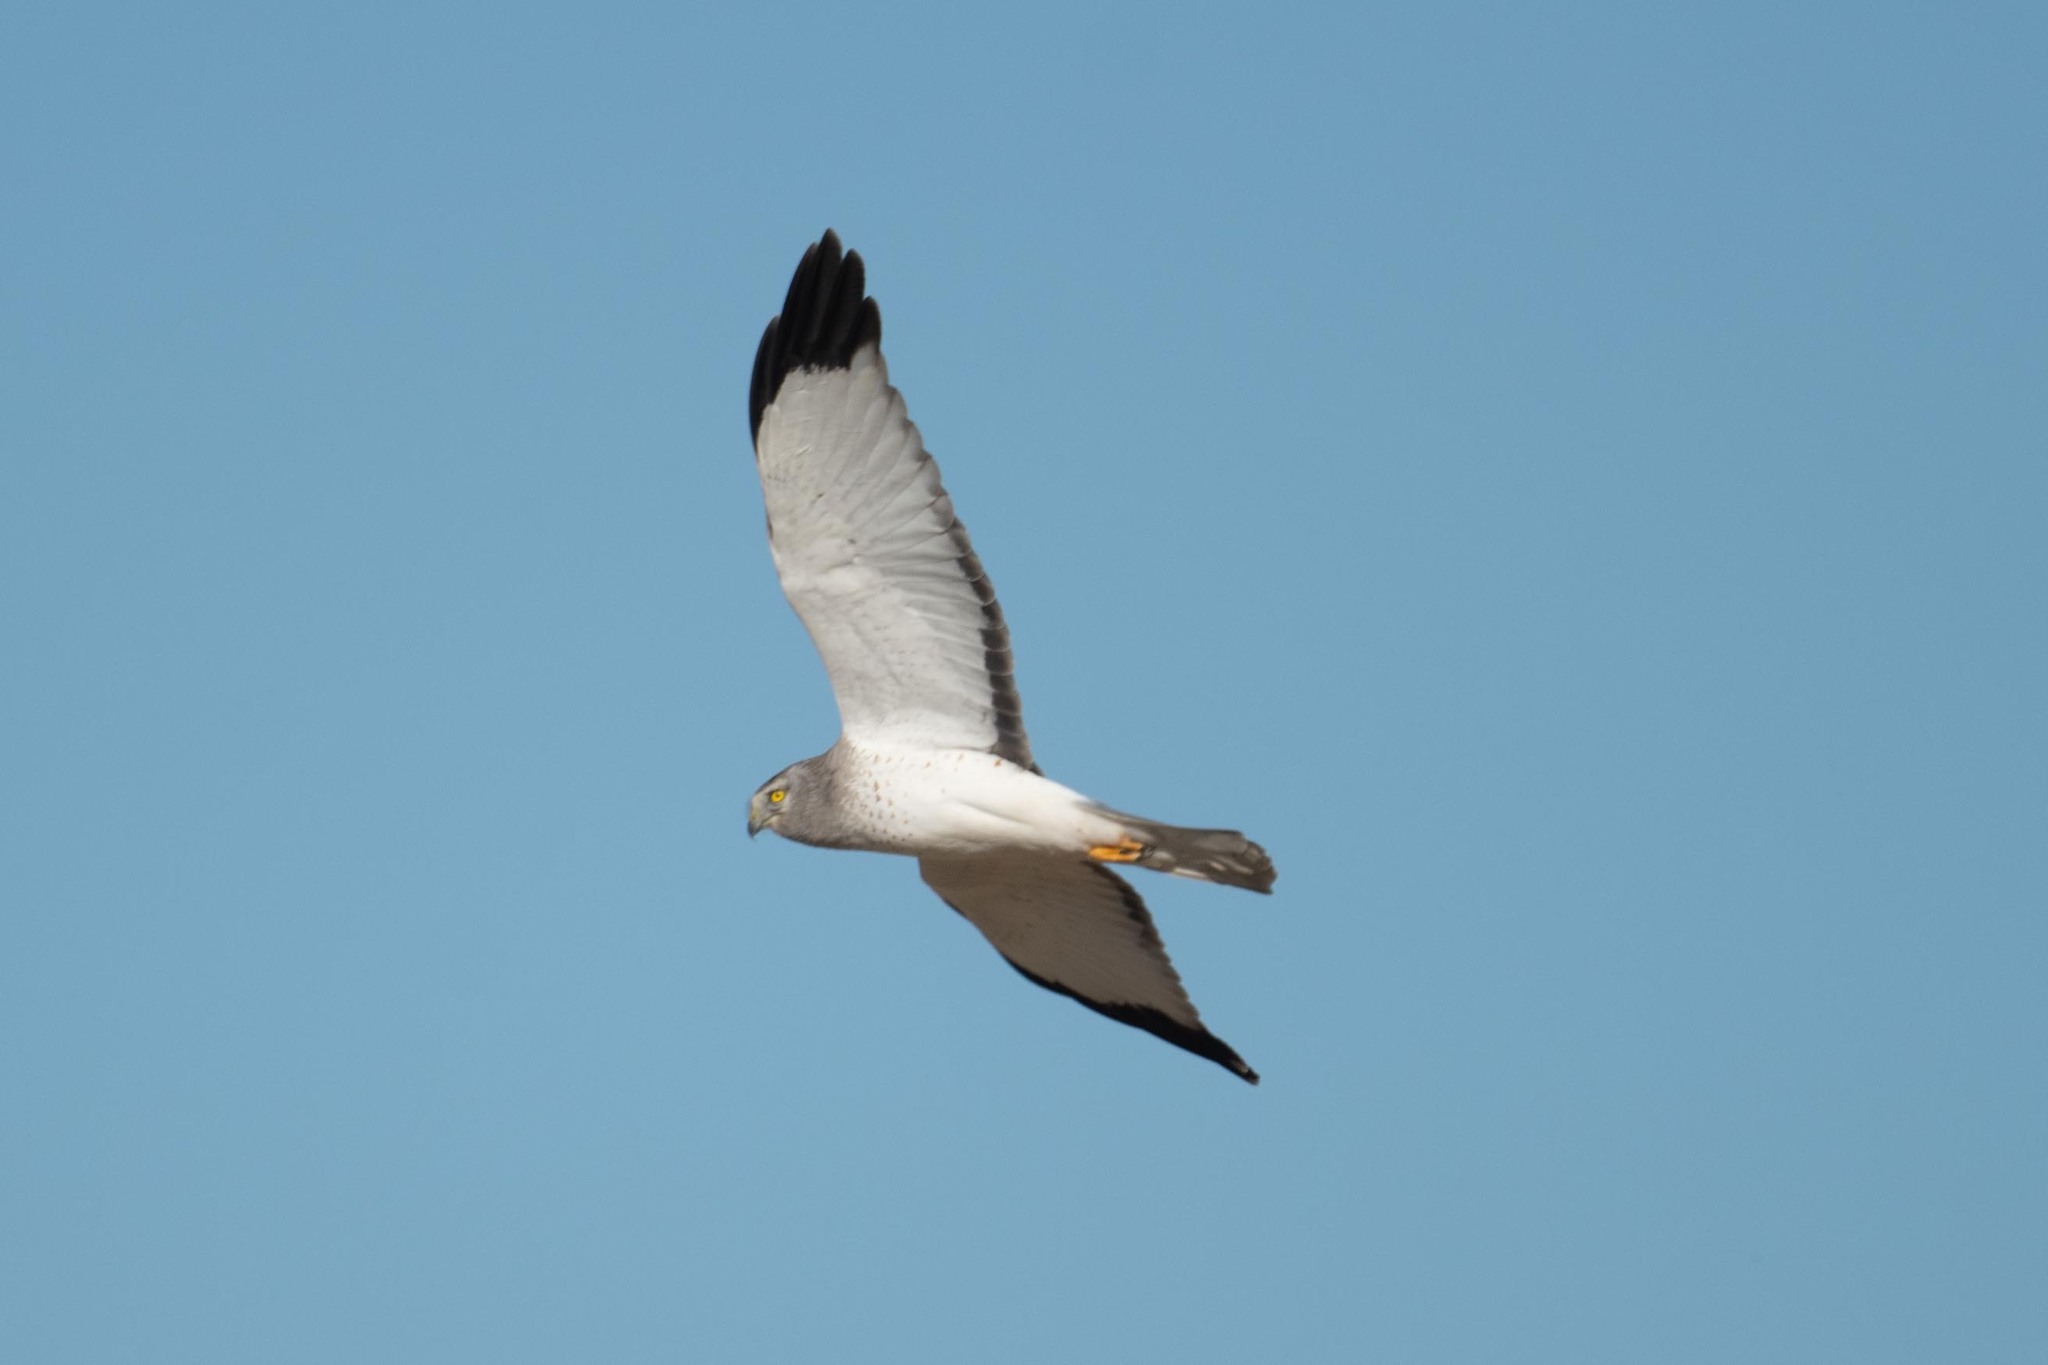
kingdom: Animalia
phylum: Chordata
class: Aves
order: Accipitriformes
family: Accipitridae
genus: Circus
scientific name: Circus cyaneus
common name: Hen harrier
